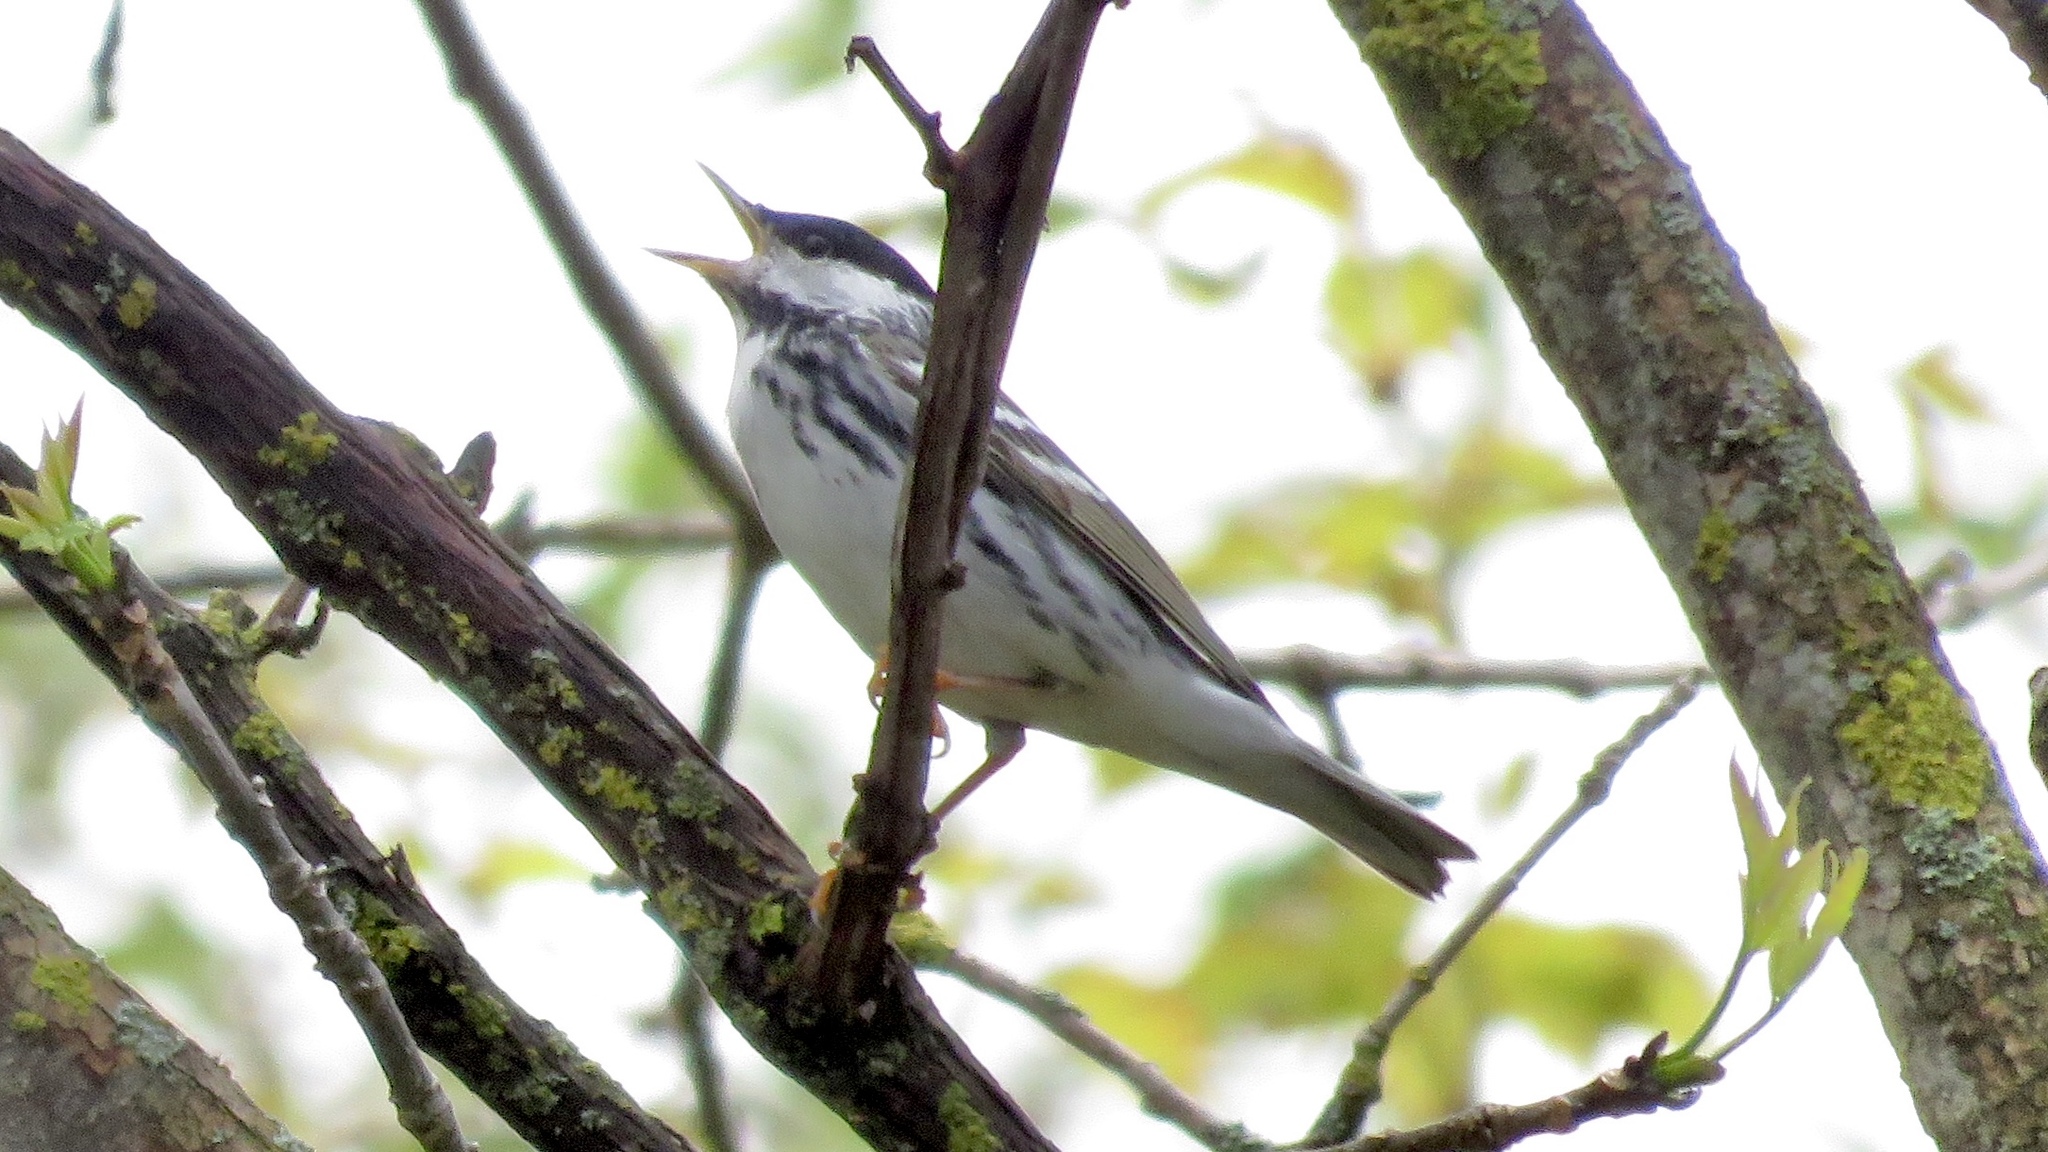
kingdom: Animalia
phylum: Chordata
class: Aves
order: Passeriformes
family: Parulidae
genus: Setophaga
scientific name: Setophaga striata
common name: Blackpoll warbler
